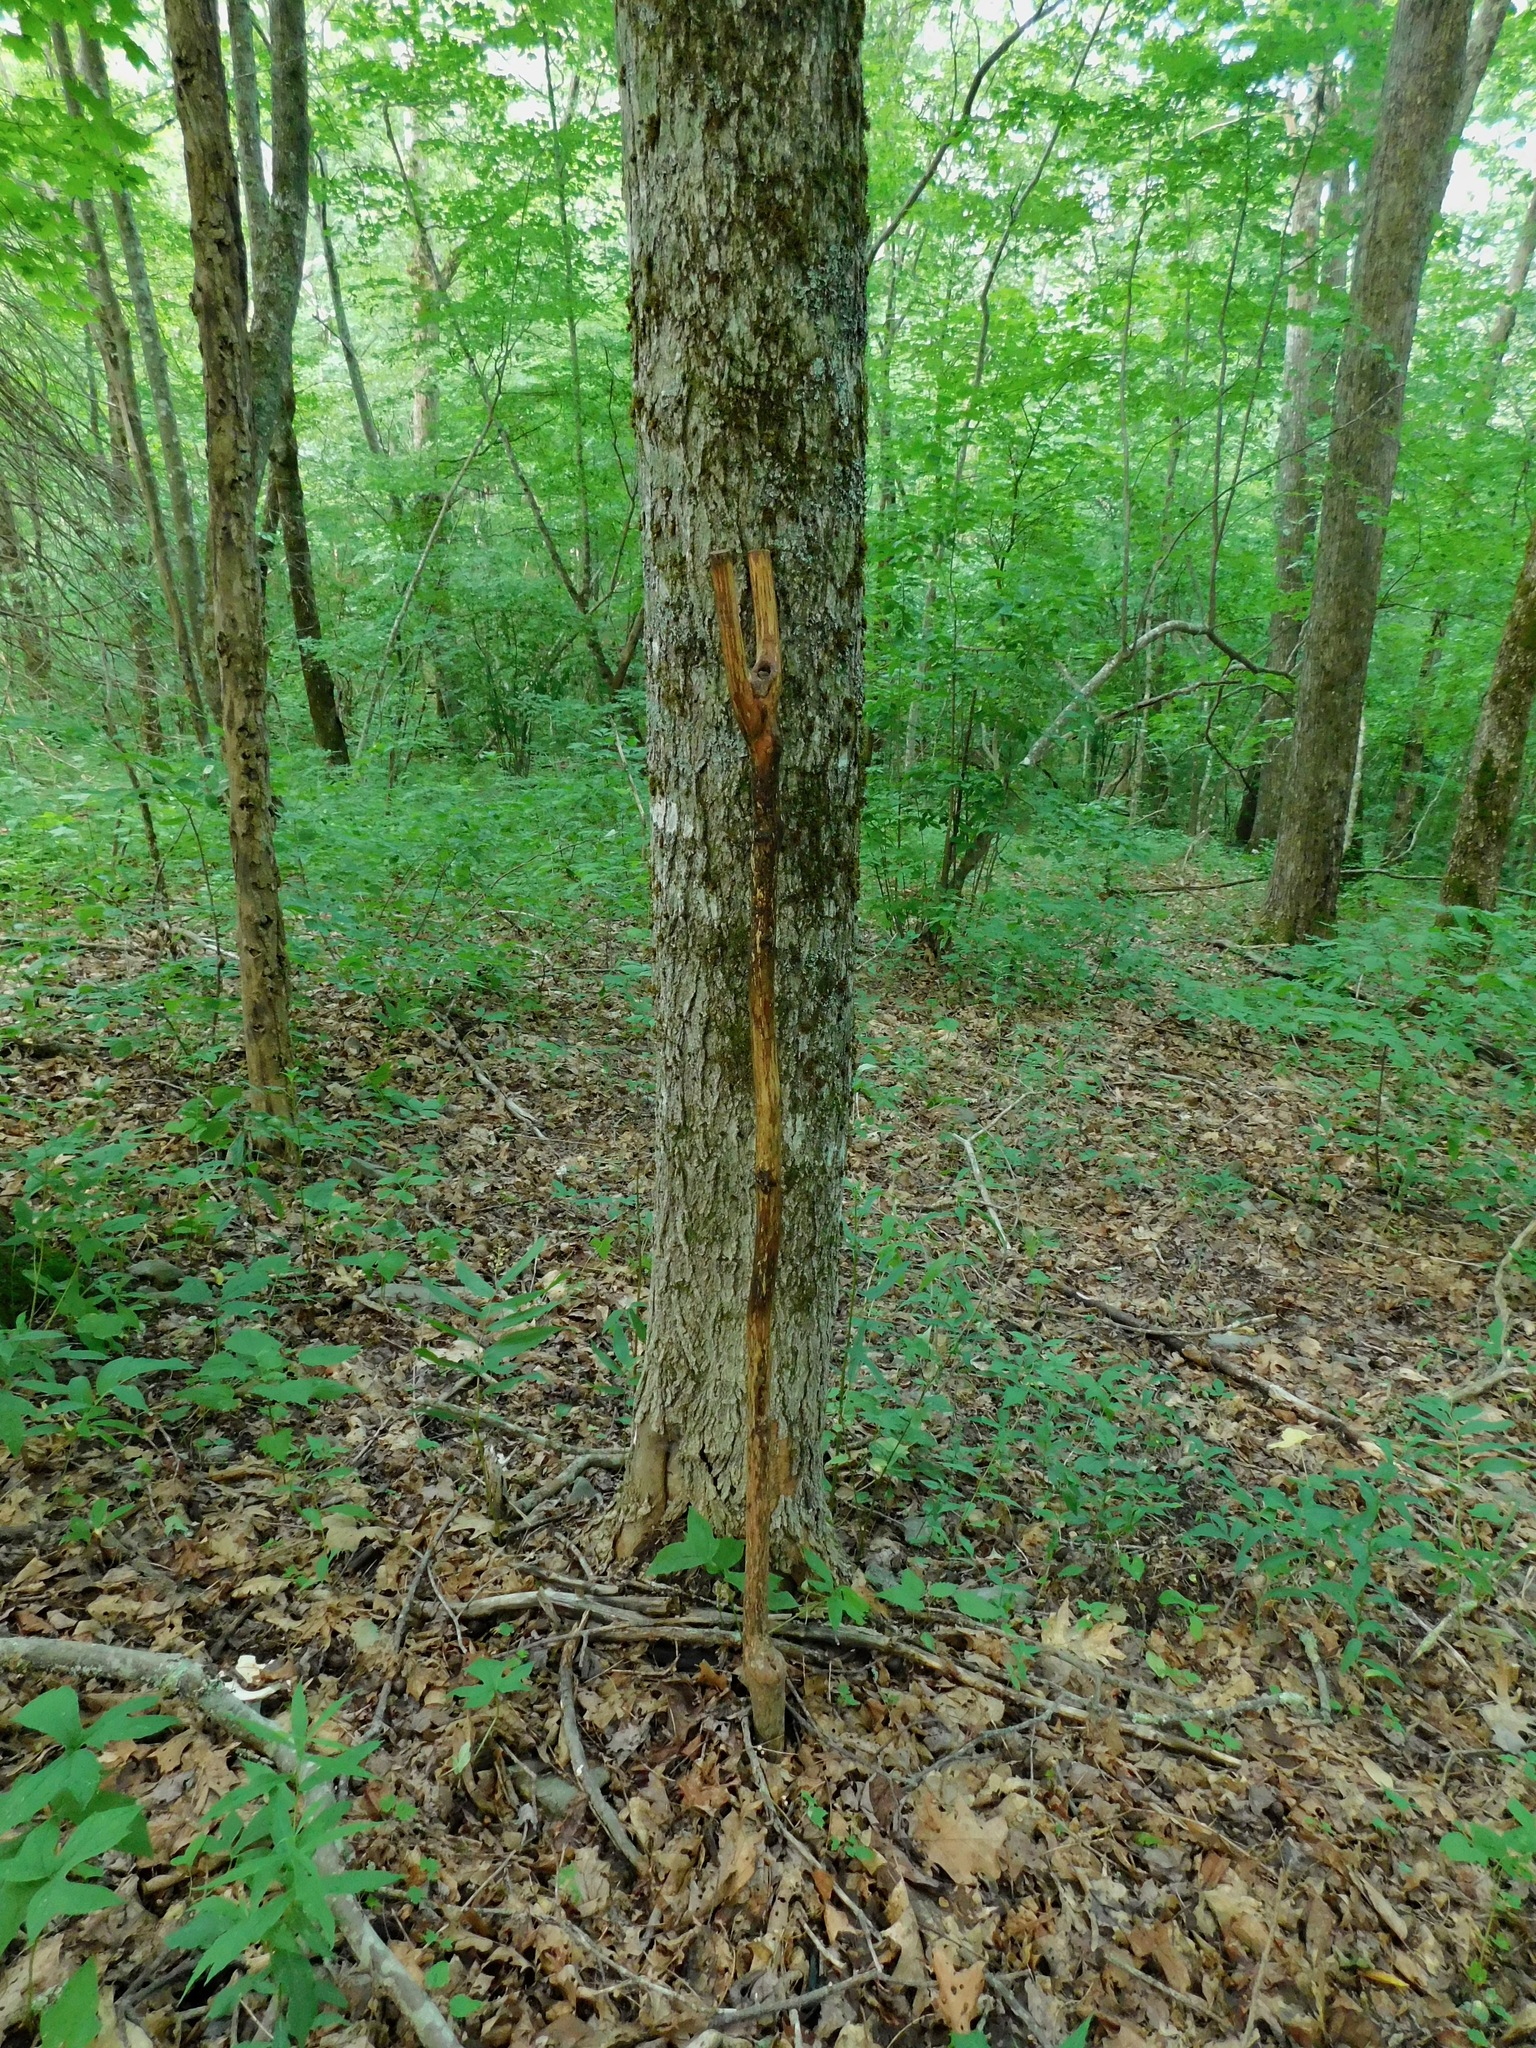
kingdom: Plantae
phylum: Tracheophyta
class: Magnoliopsida
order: Sapindales
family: Sapindaceae
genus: Acer
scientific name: Acer saccharum
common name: Sugar maple
